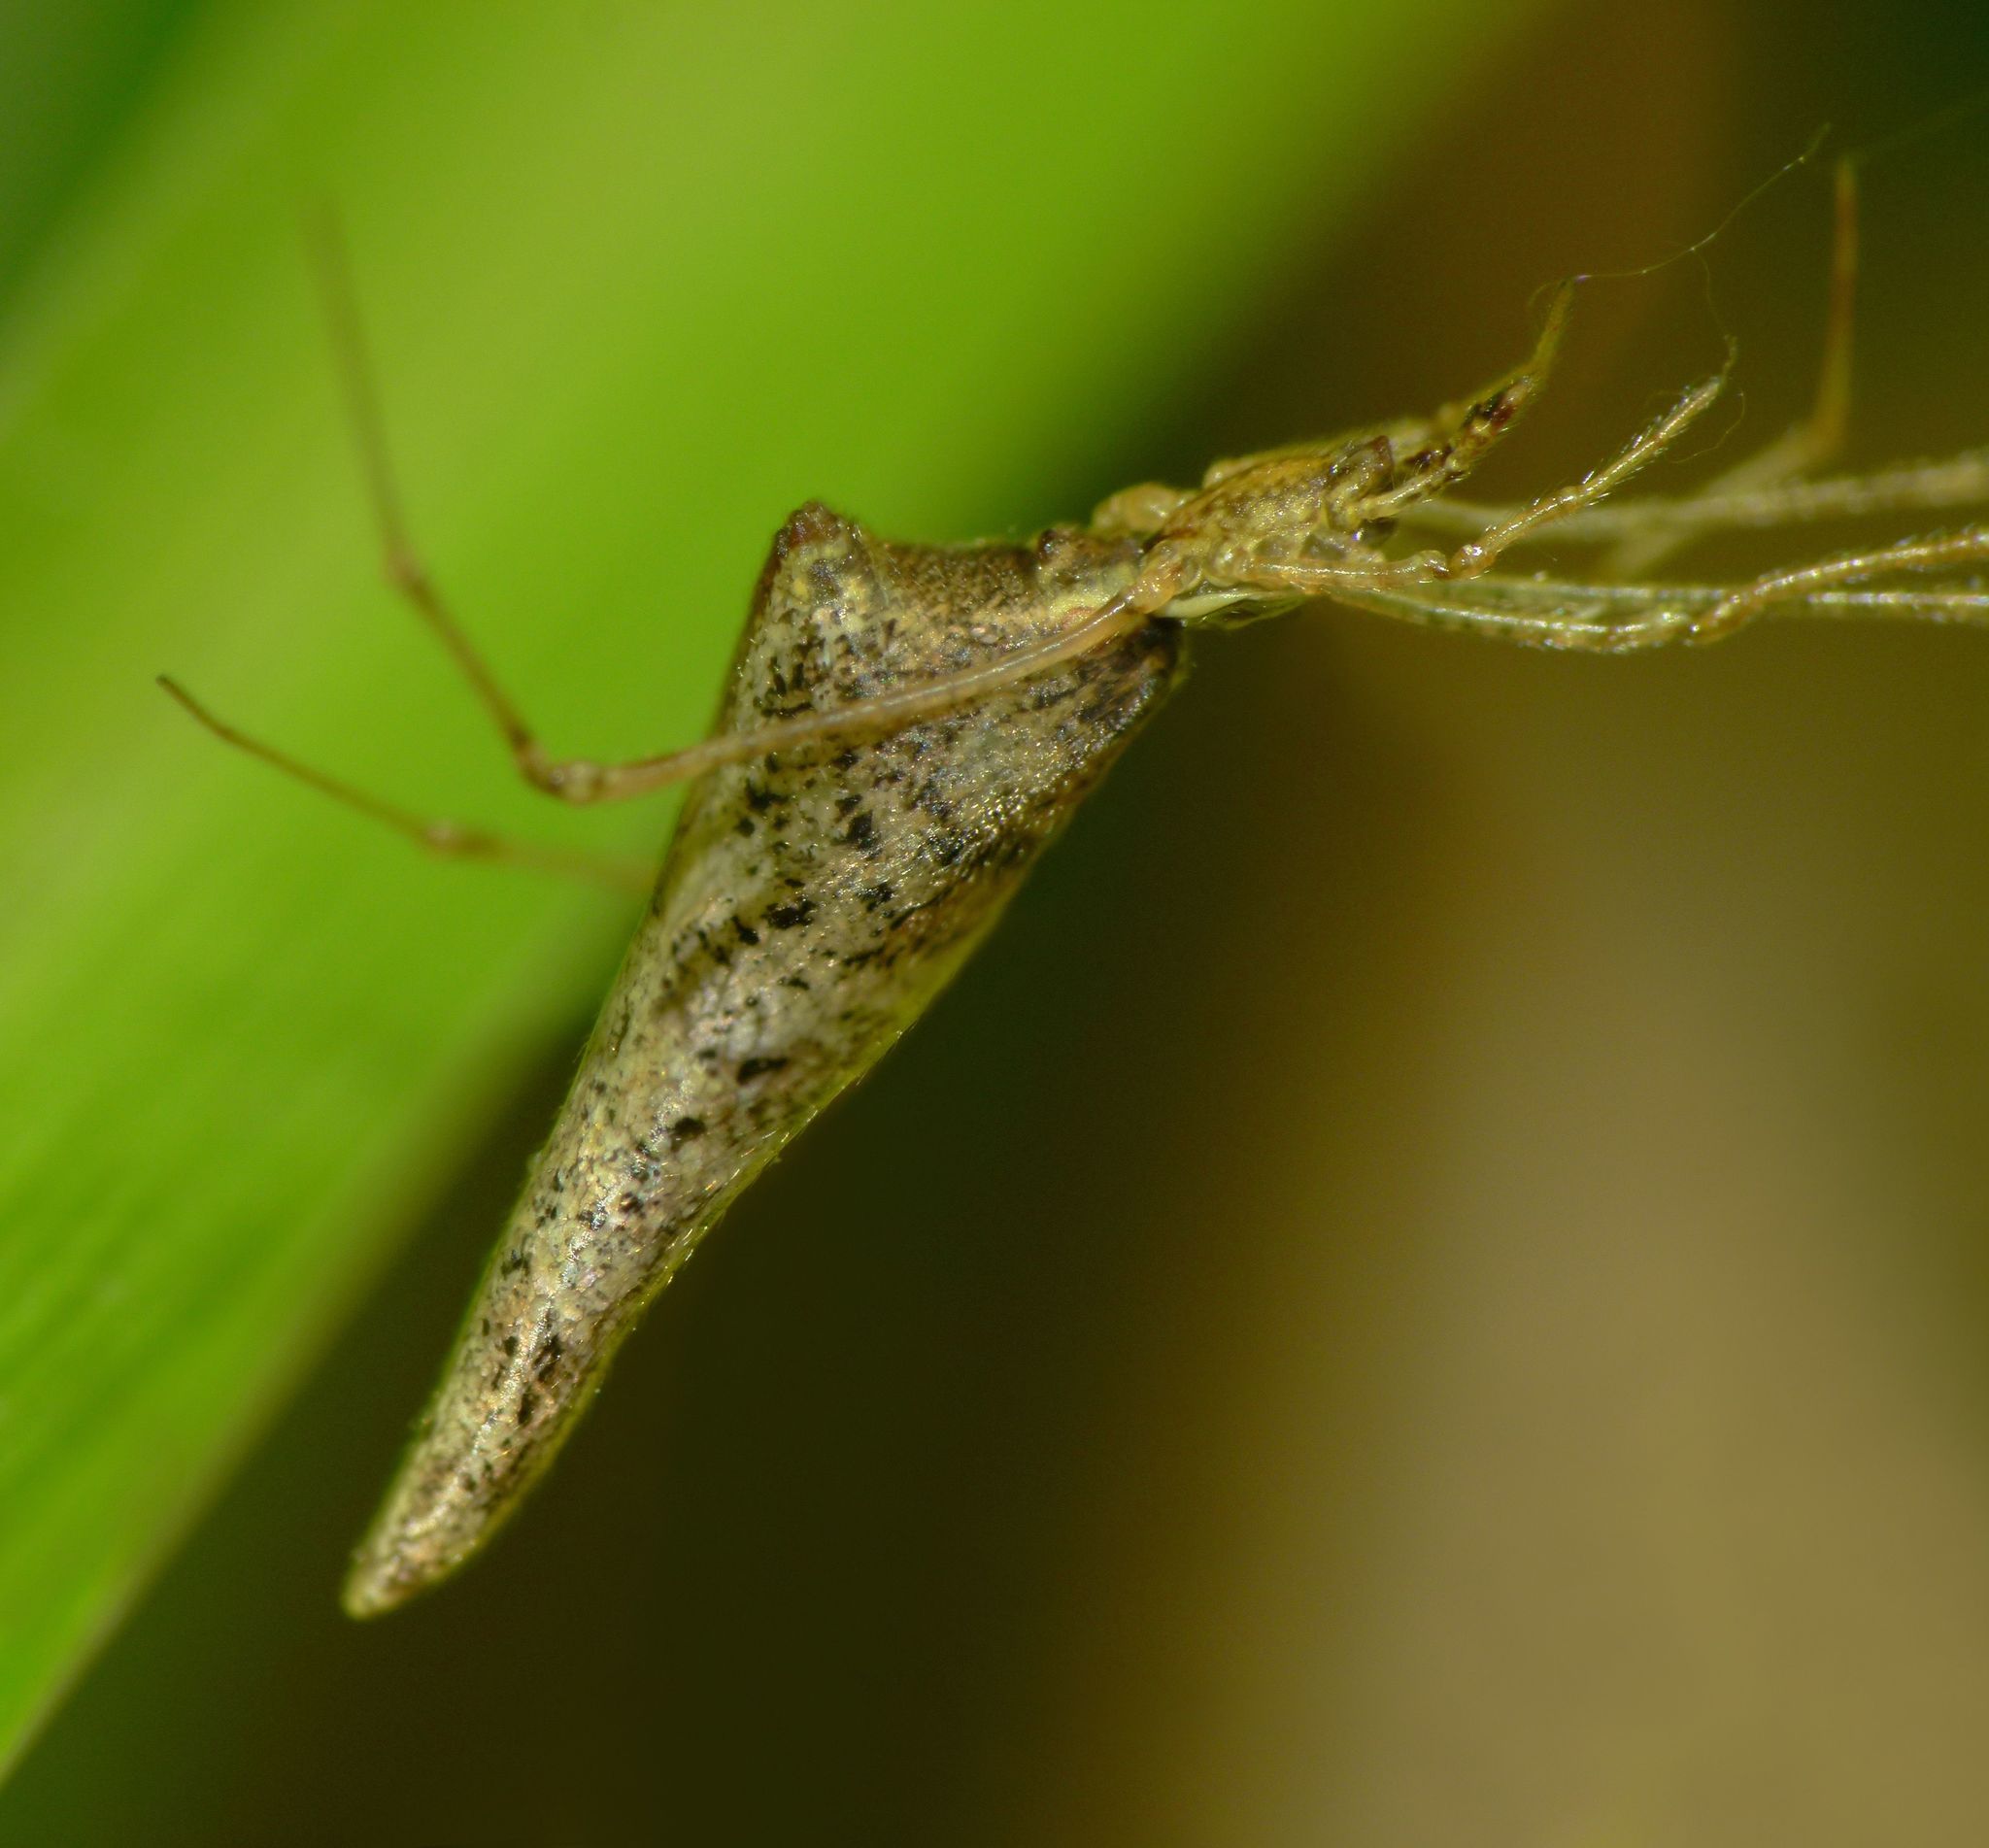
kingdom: Animalia
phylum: Arthropoda
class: Arachnida
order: Araneae
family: Theridiidae
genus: Rhomphaea
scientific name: Rhomphaea urquharti
